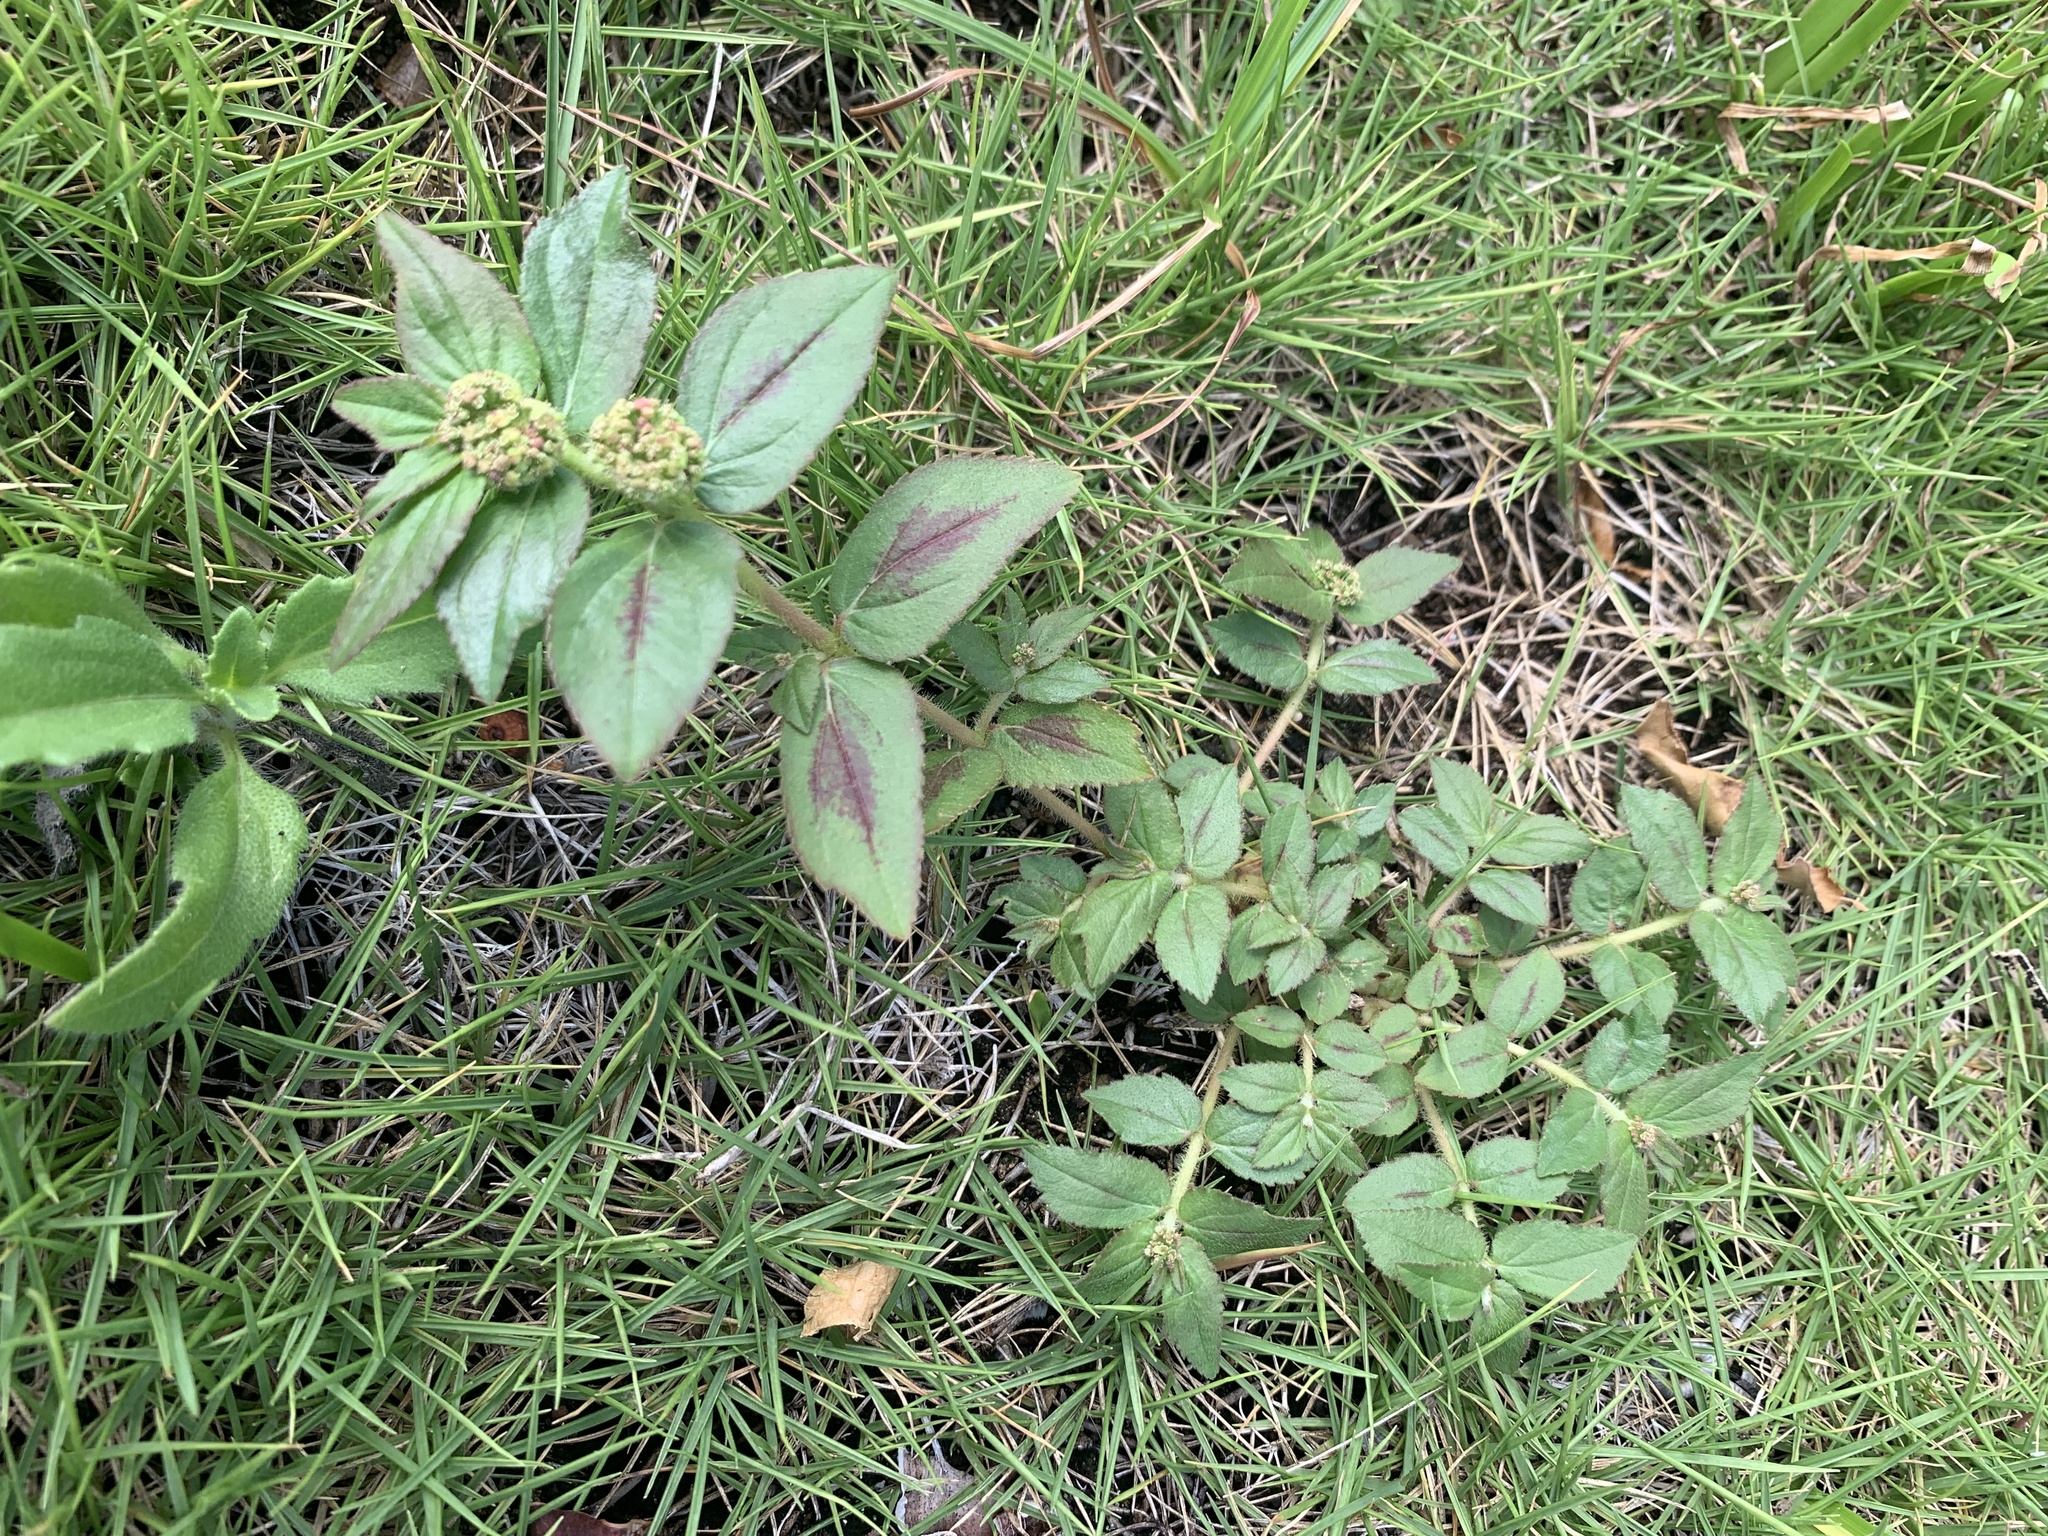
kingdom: Plantae
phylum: Tracheophyta
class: Magnoliopsida
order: Malpighiales
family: Euphorbiaceae
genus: Euphorbia
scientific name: Euphorbia hirta
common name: Pillpod sandmat
